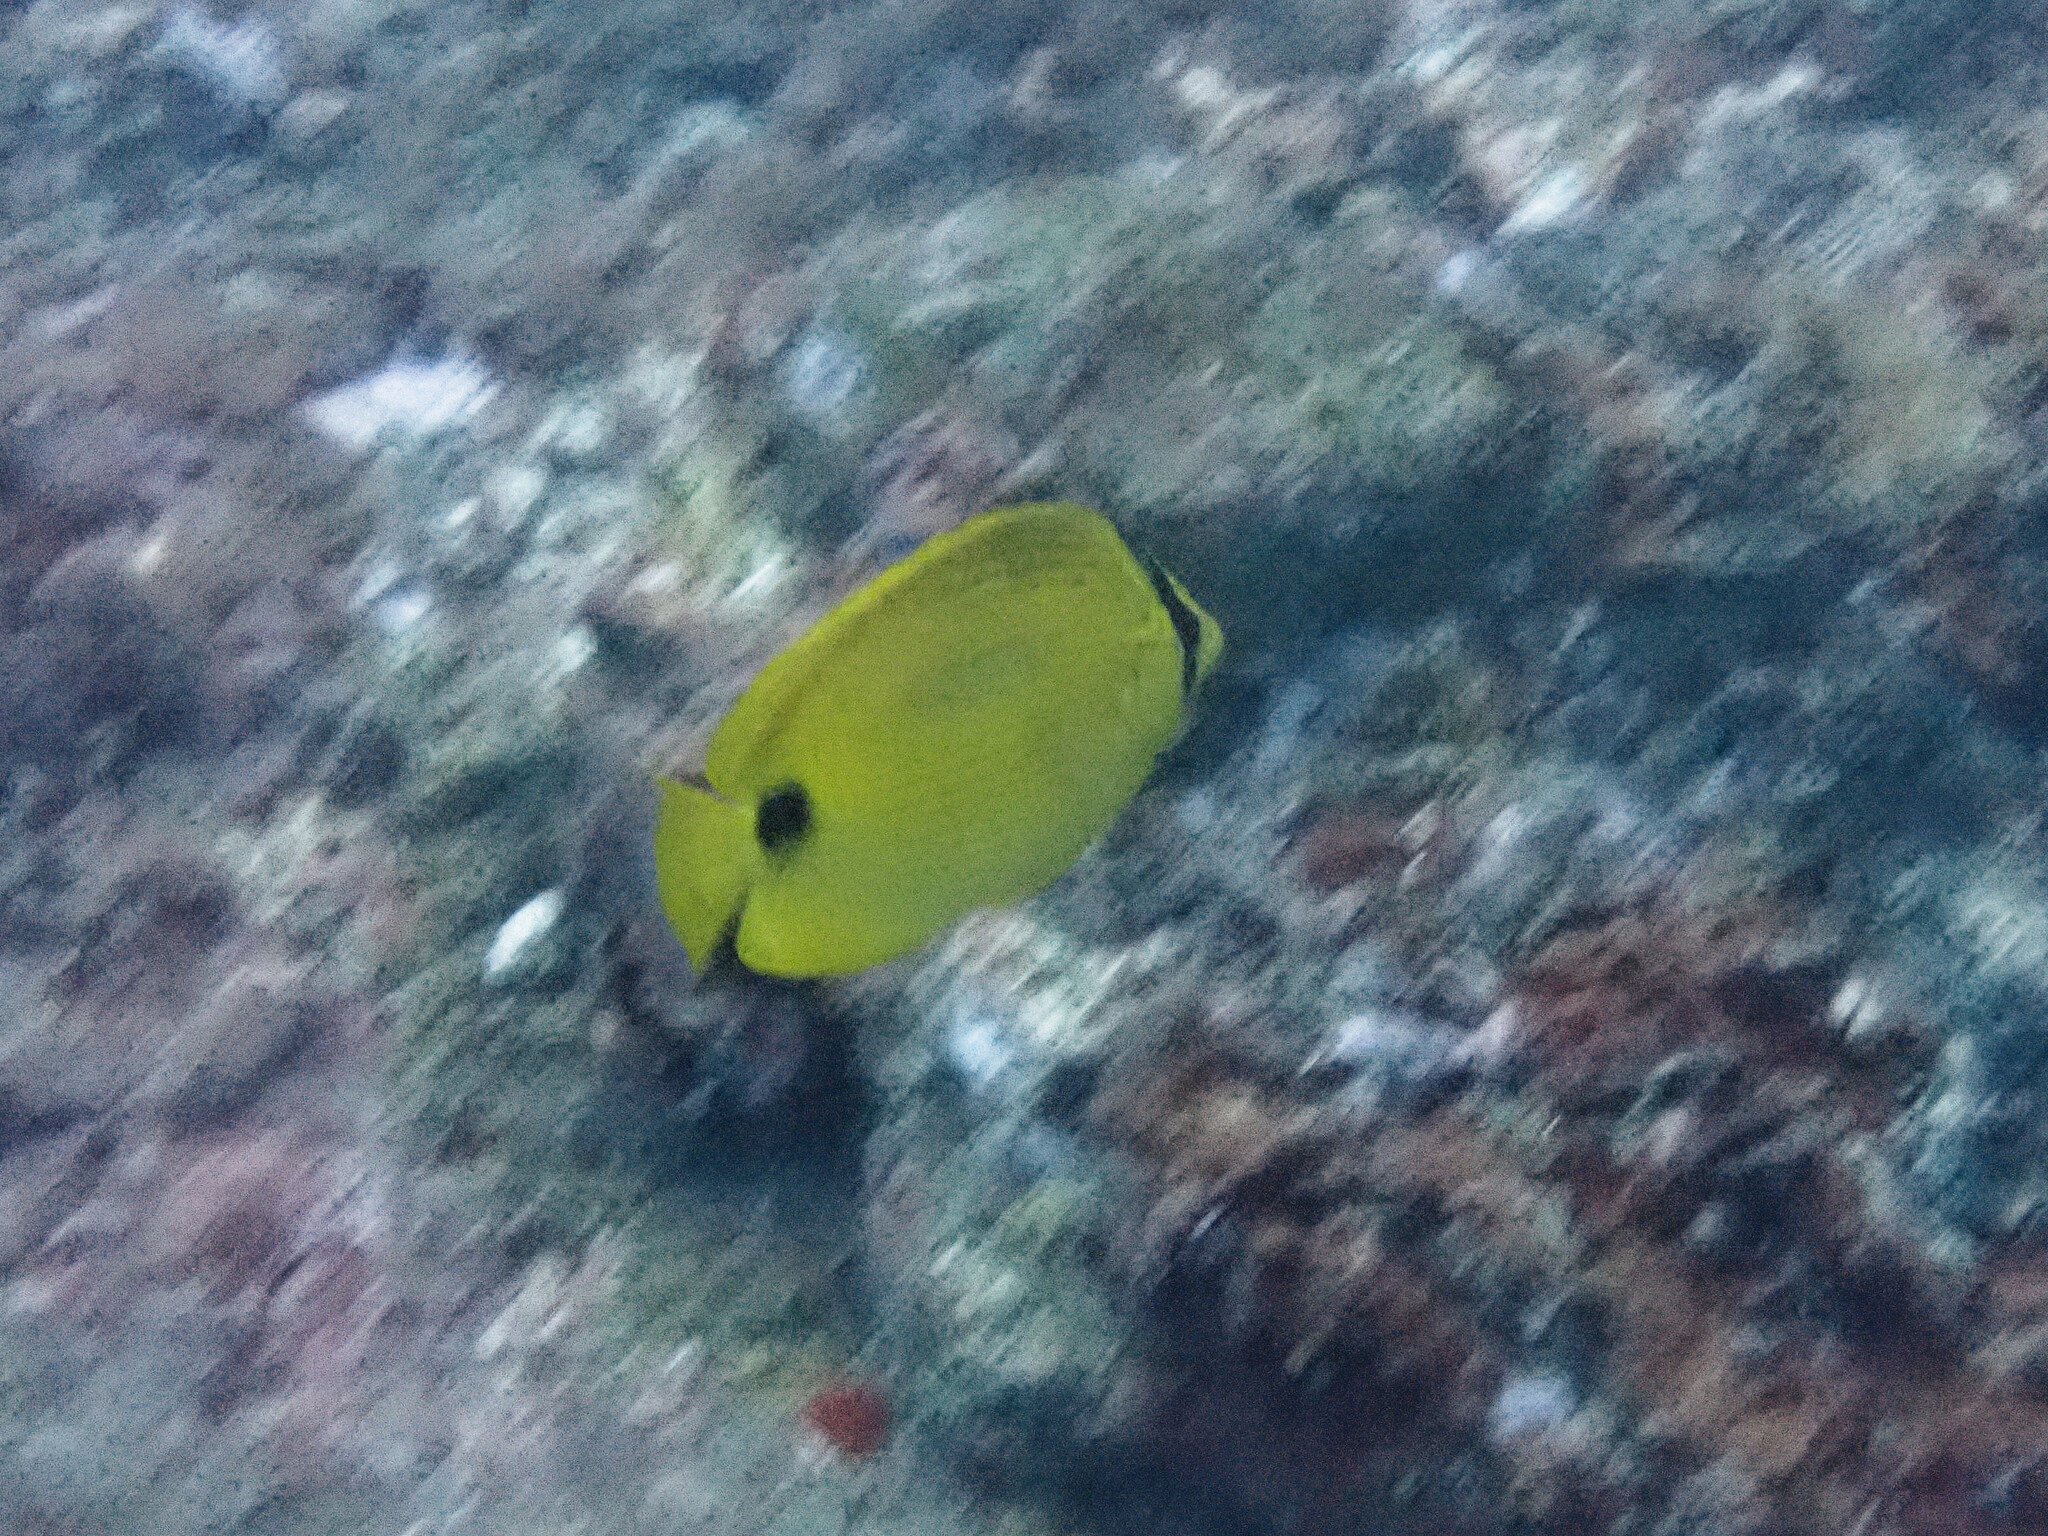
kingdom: Animalia
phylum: Chordata
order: Perciformes
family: Chaetodontidae
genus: Chaetodon
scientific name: Chaetodon andamanensis
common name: Yellow butterflyfish
